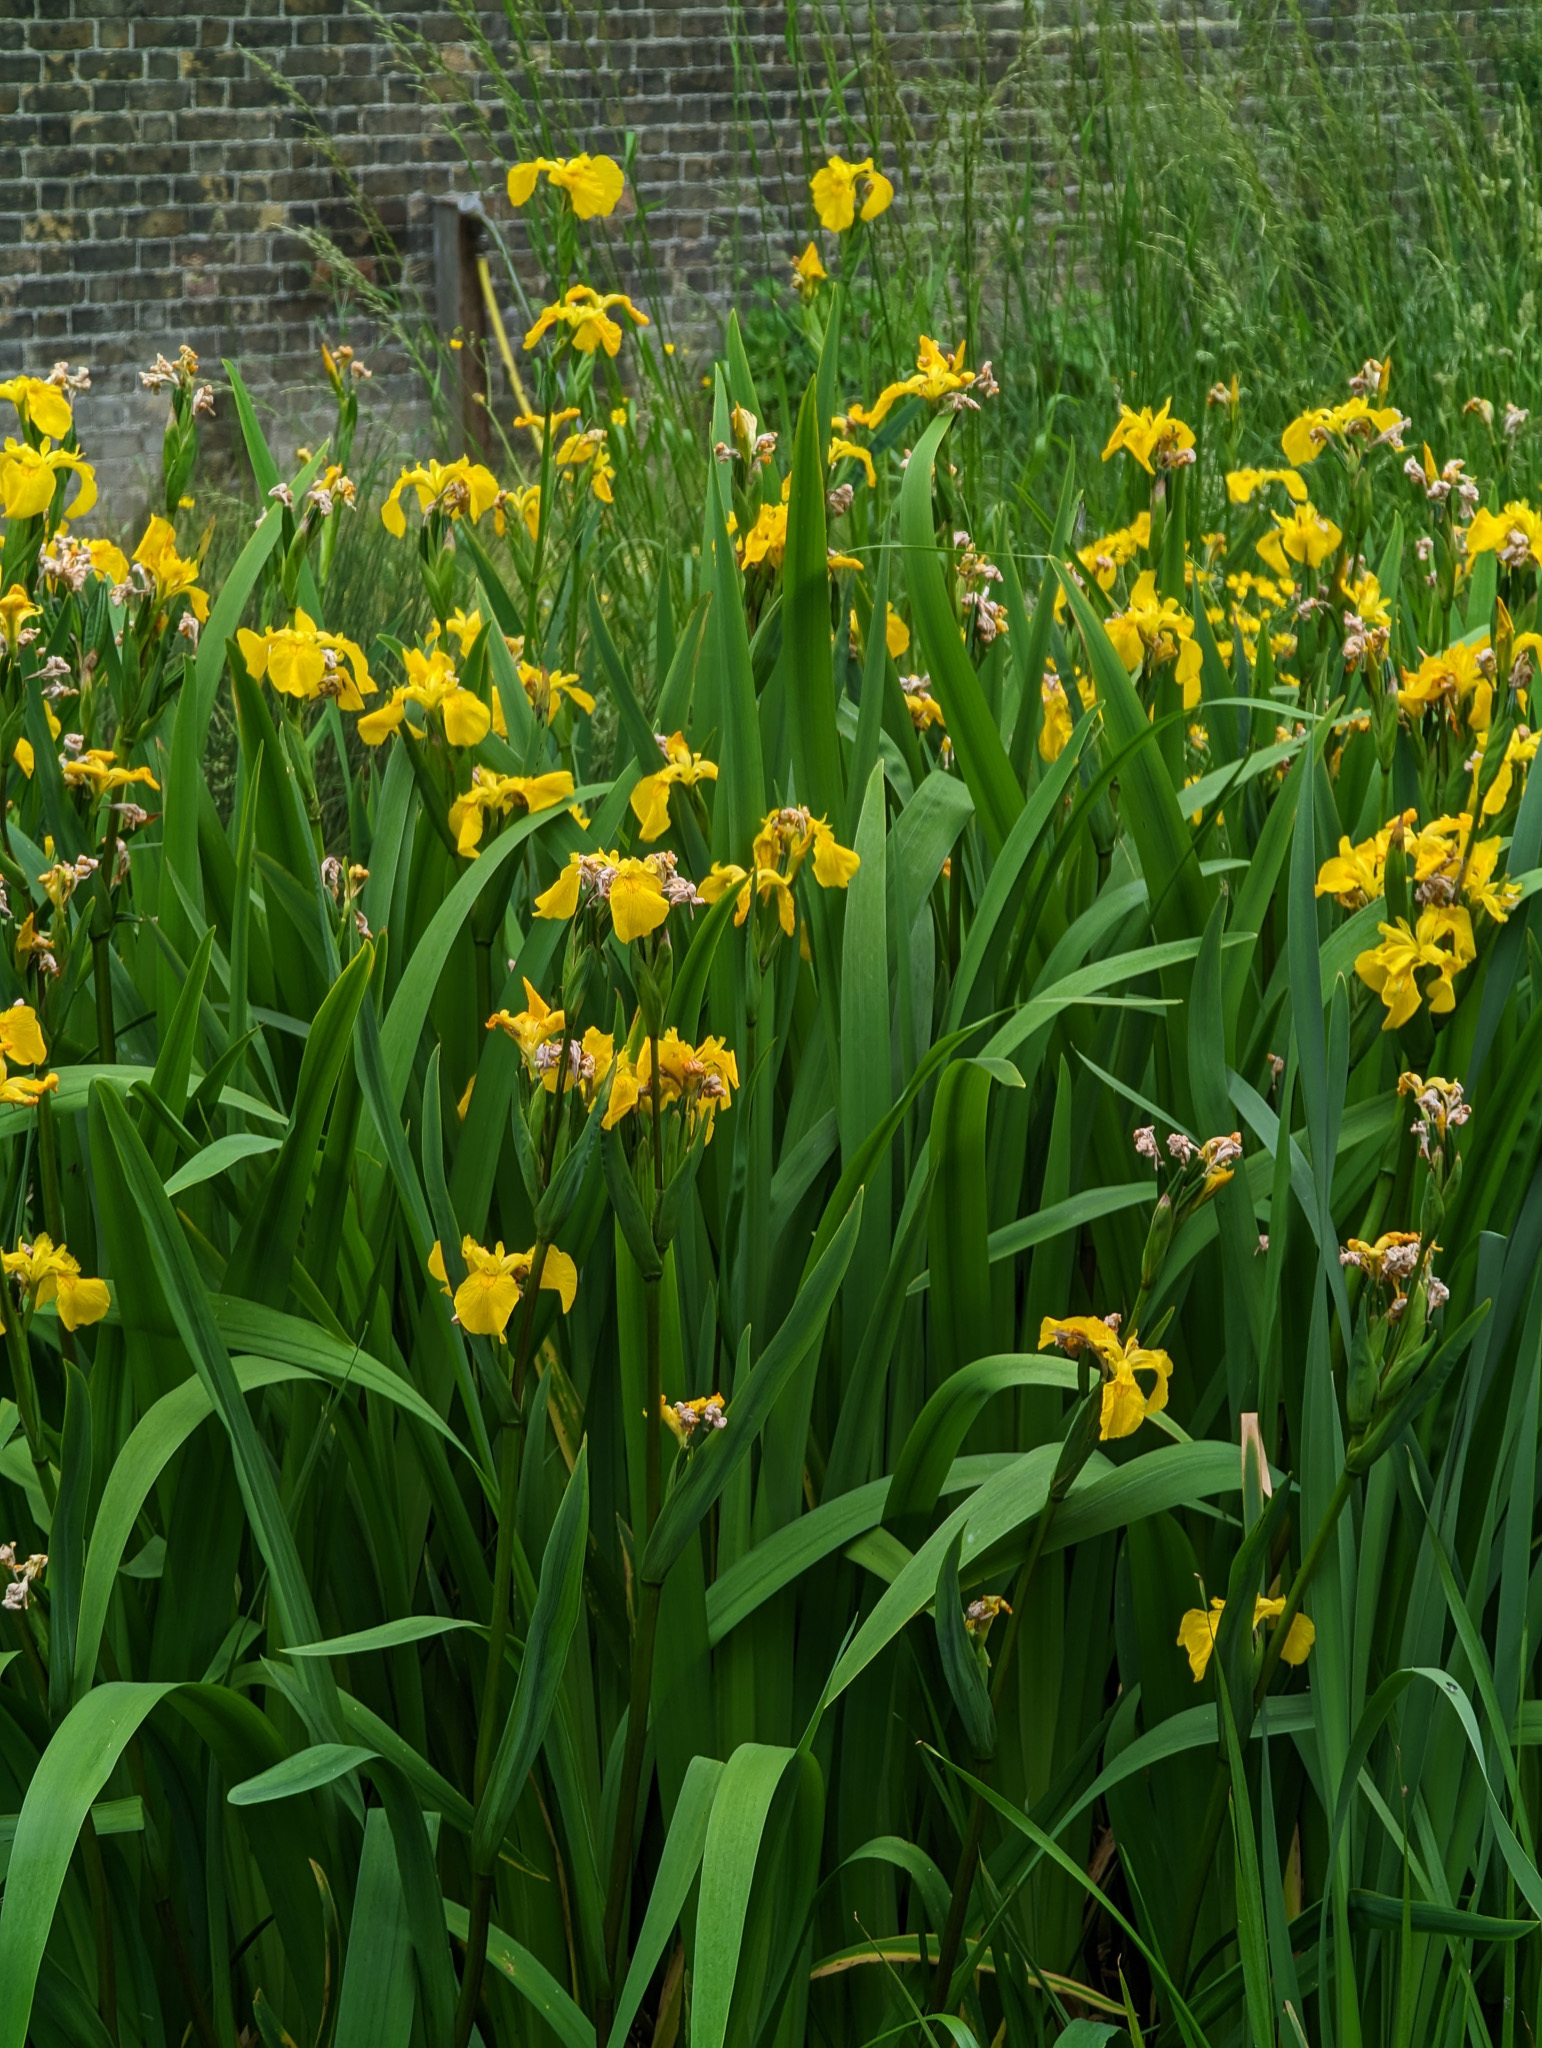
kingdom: Plantae
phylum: Tracheophyta
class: Liliopsida
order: Asparagales
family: Iridaceae
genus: Iris
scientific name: Iris pseudacorus
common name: Yellow flag
